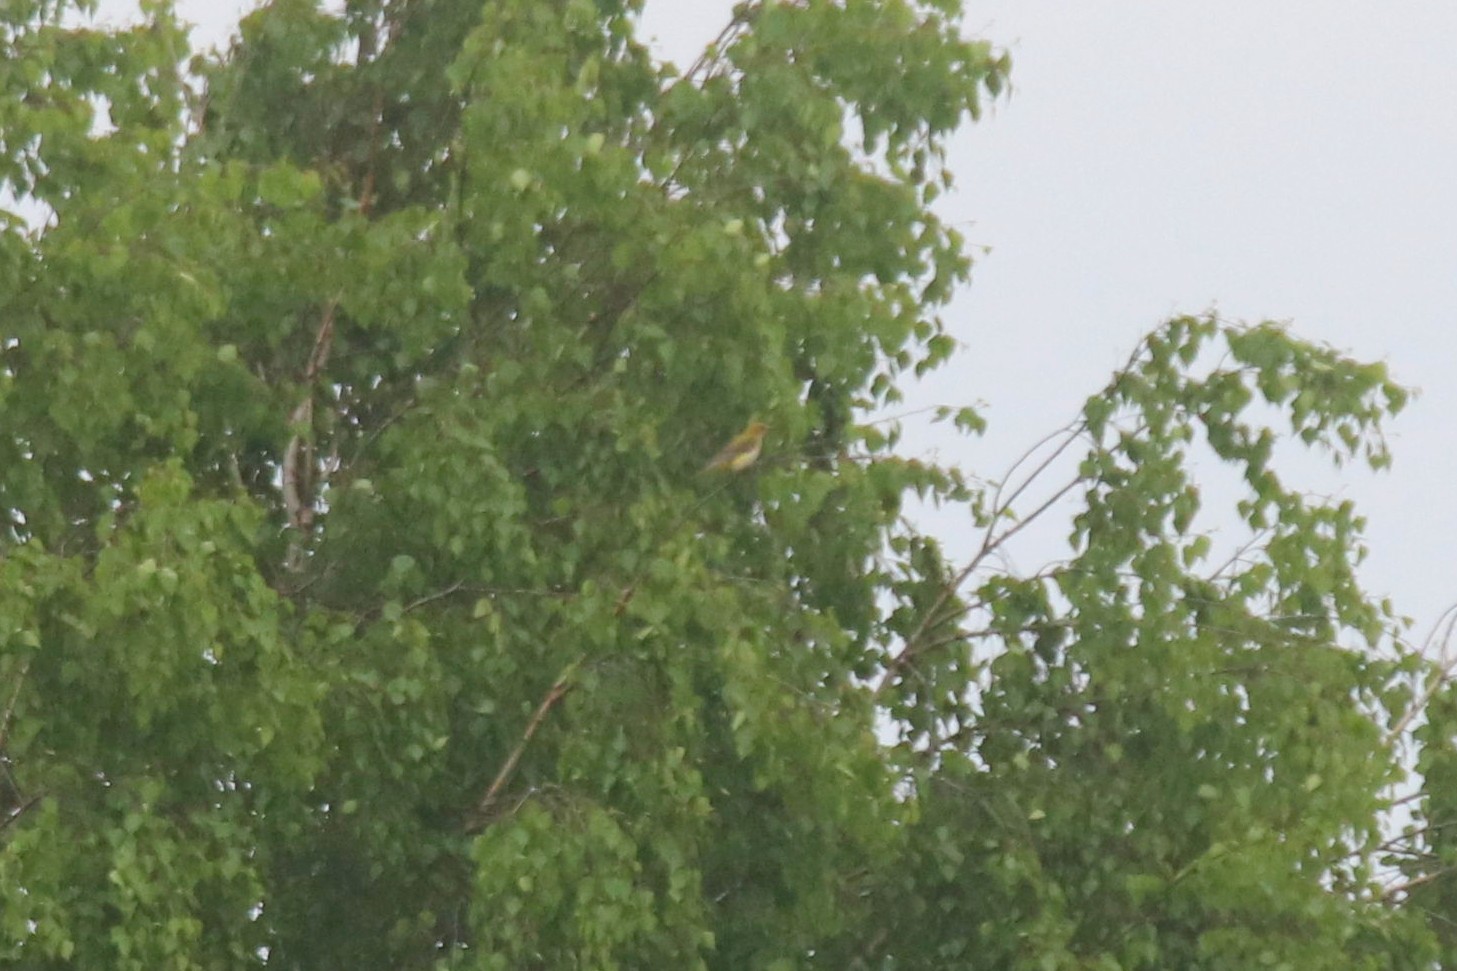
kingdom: Animalia
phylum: Chordata
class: Aves
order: Passeriformes
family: Oriolidae
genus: Oriolus
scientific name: Oriolus oriolus
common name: Eurasian golden oriole
